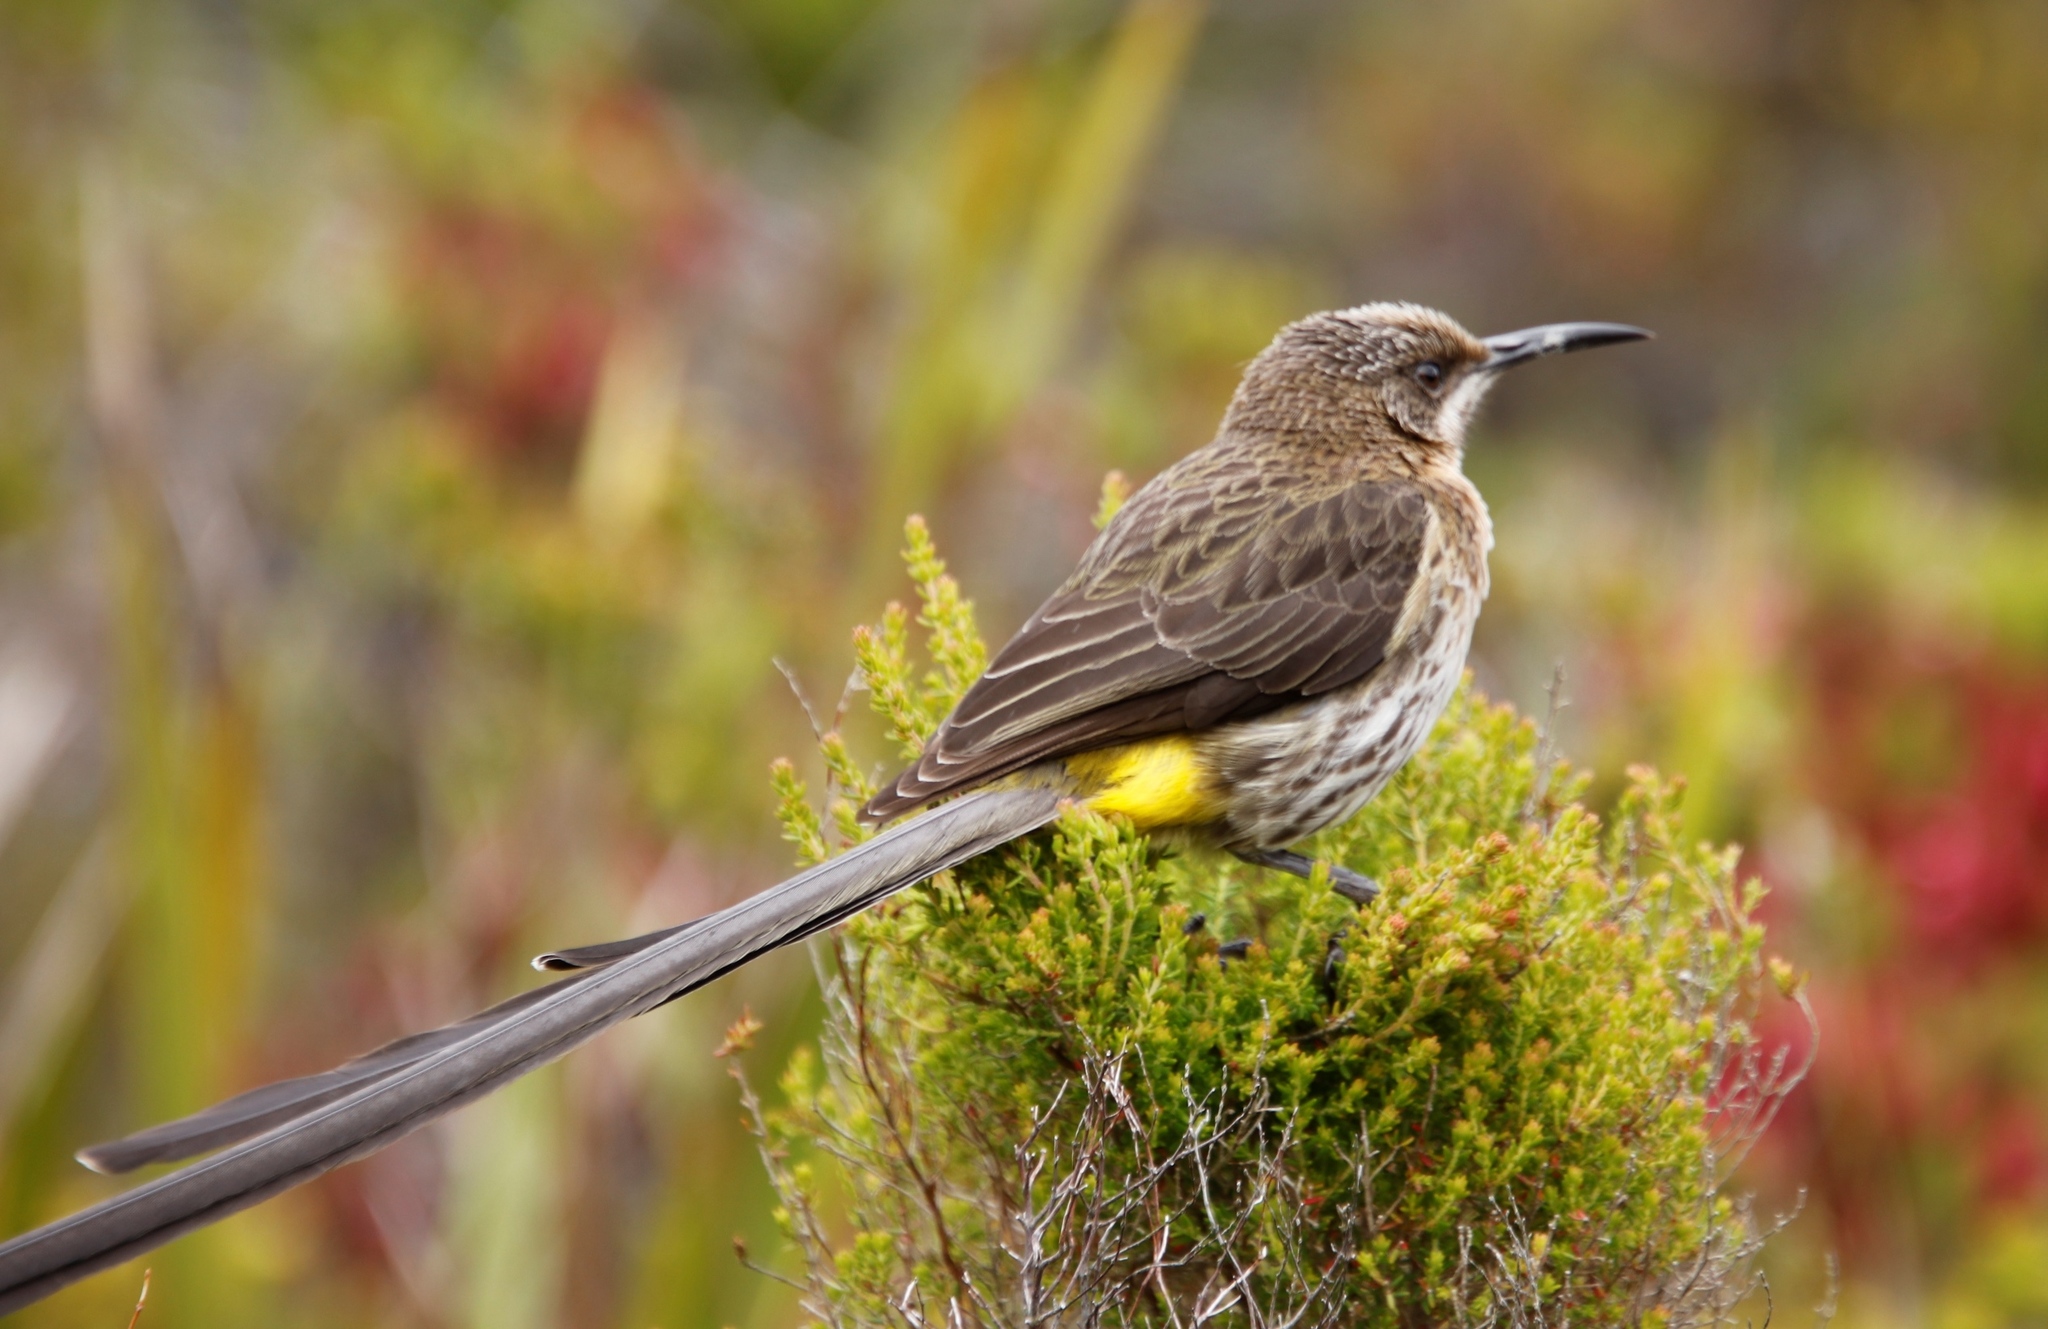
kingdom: Animalia
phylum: Chordata
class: Aves
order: Passeriformes
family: Promeropidae
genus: Promerops
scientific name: Promerops cafer
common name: Cape sugarbird
